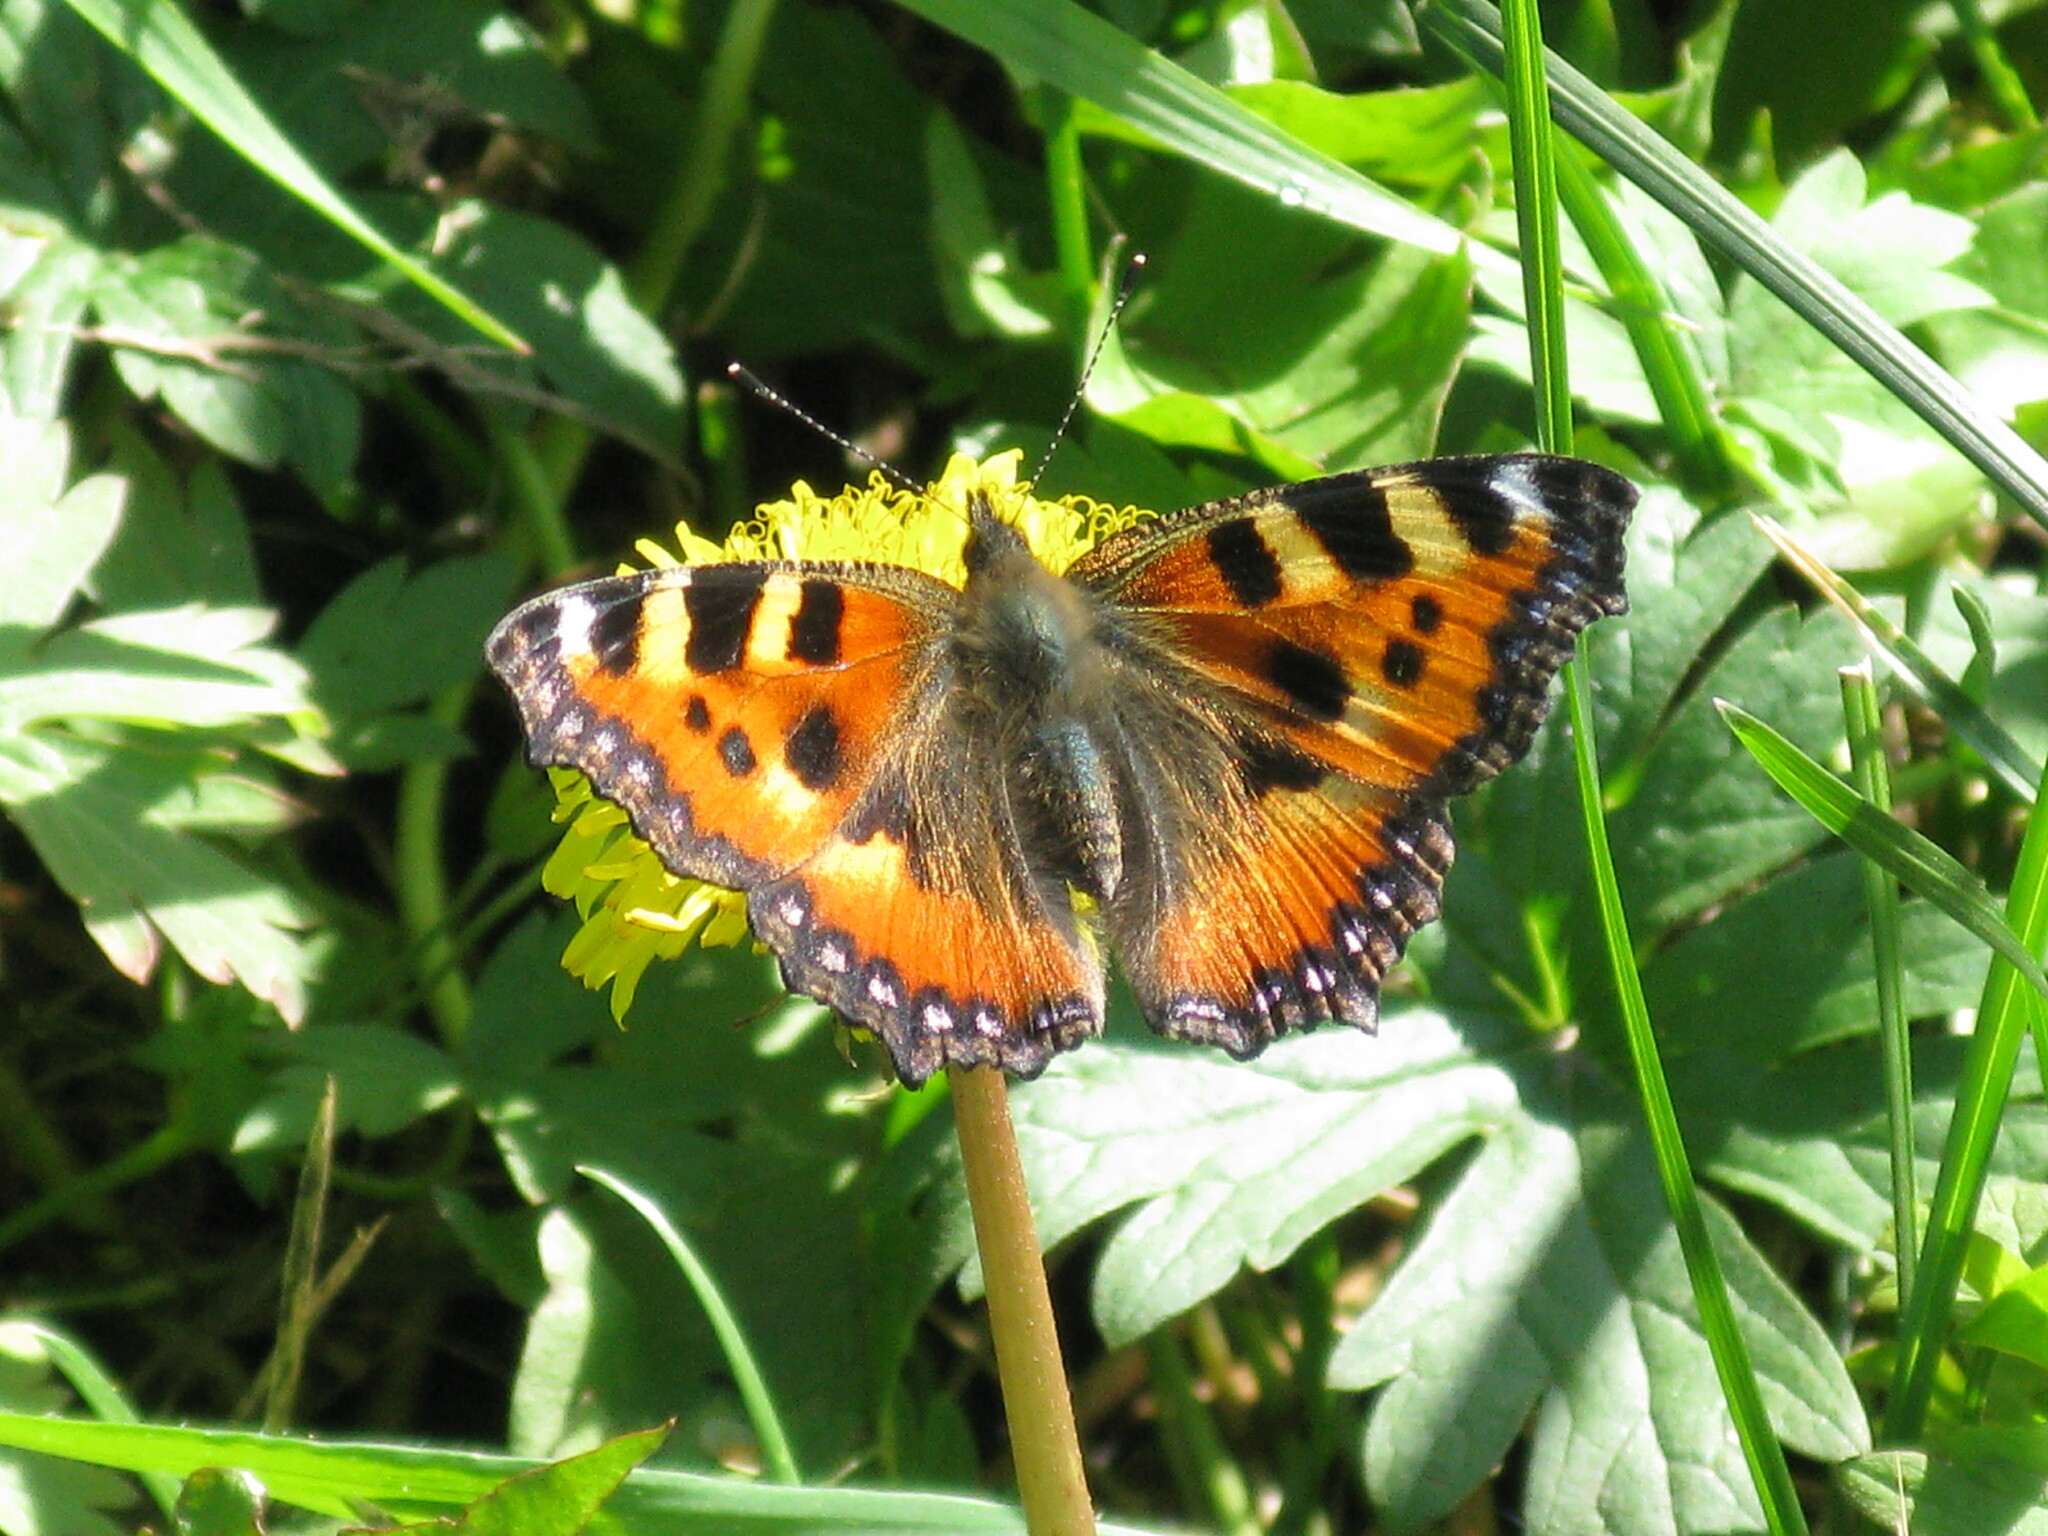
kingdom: Animalia
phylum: Arthropoda
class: Insecta
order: Lepidoptera
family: Nymphalidae
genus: Aglais
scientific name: Aglais urticae
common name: Small tortoiseshell
